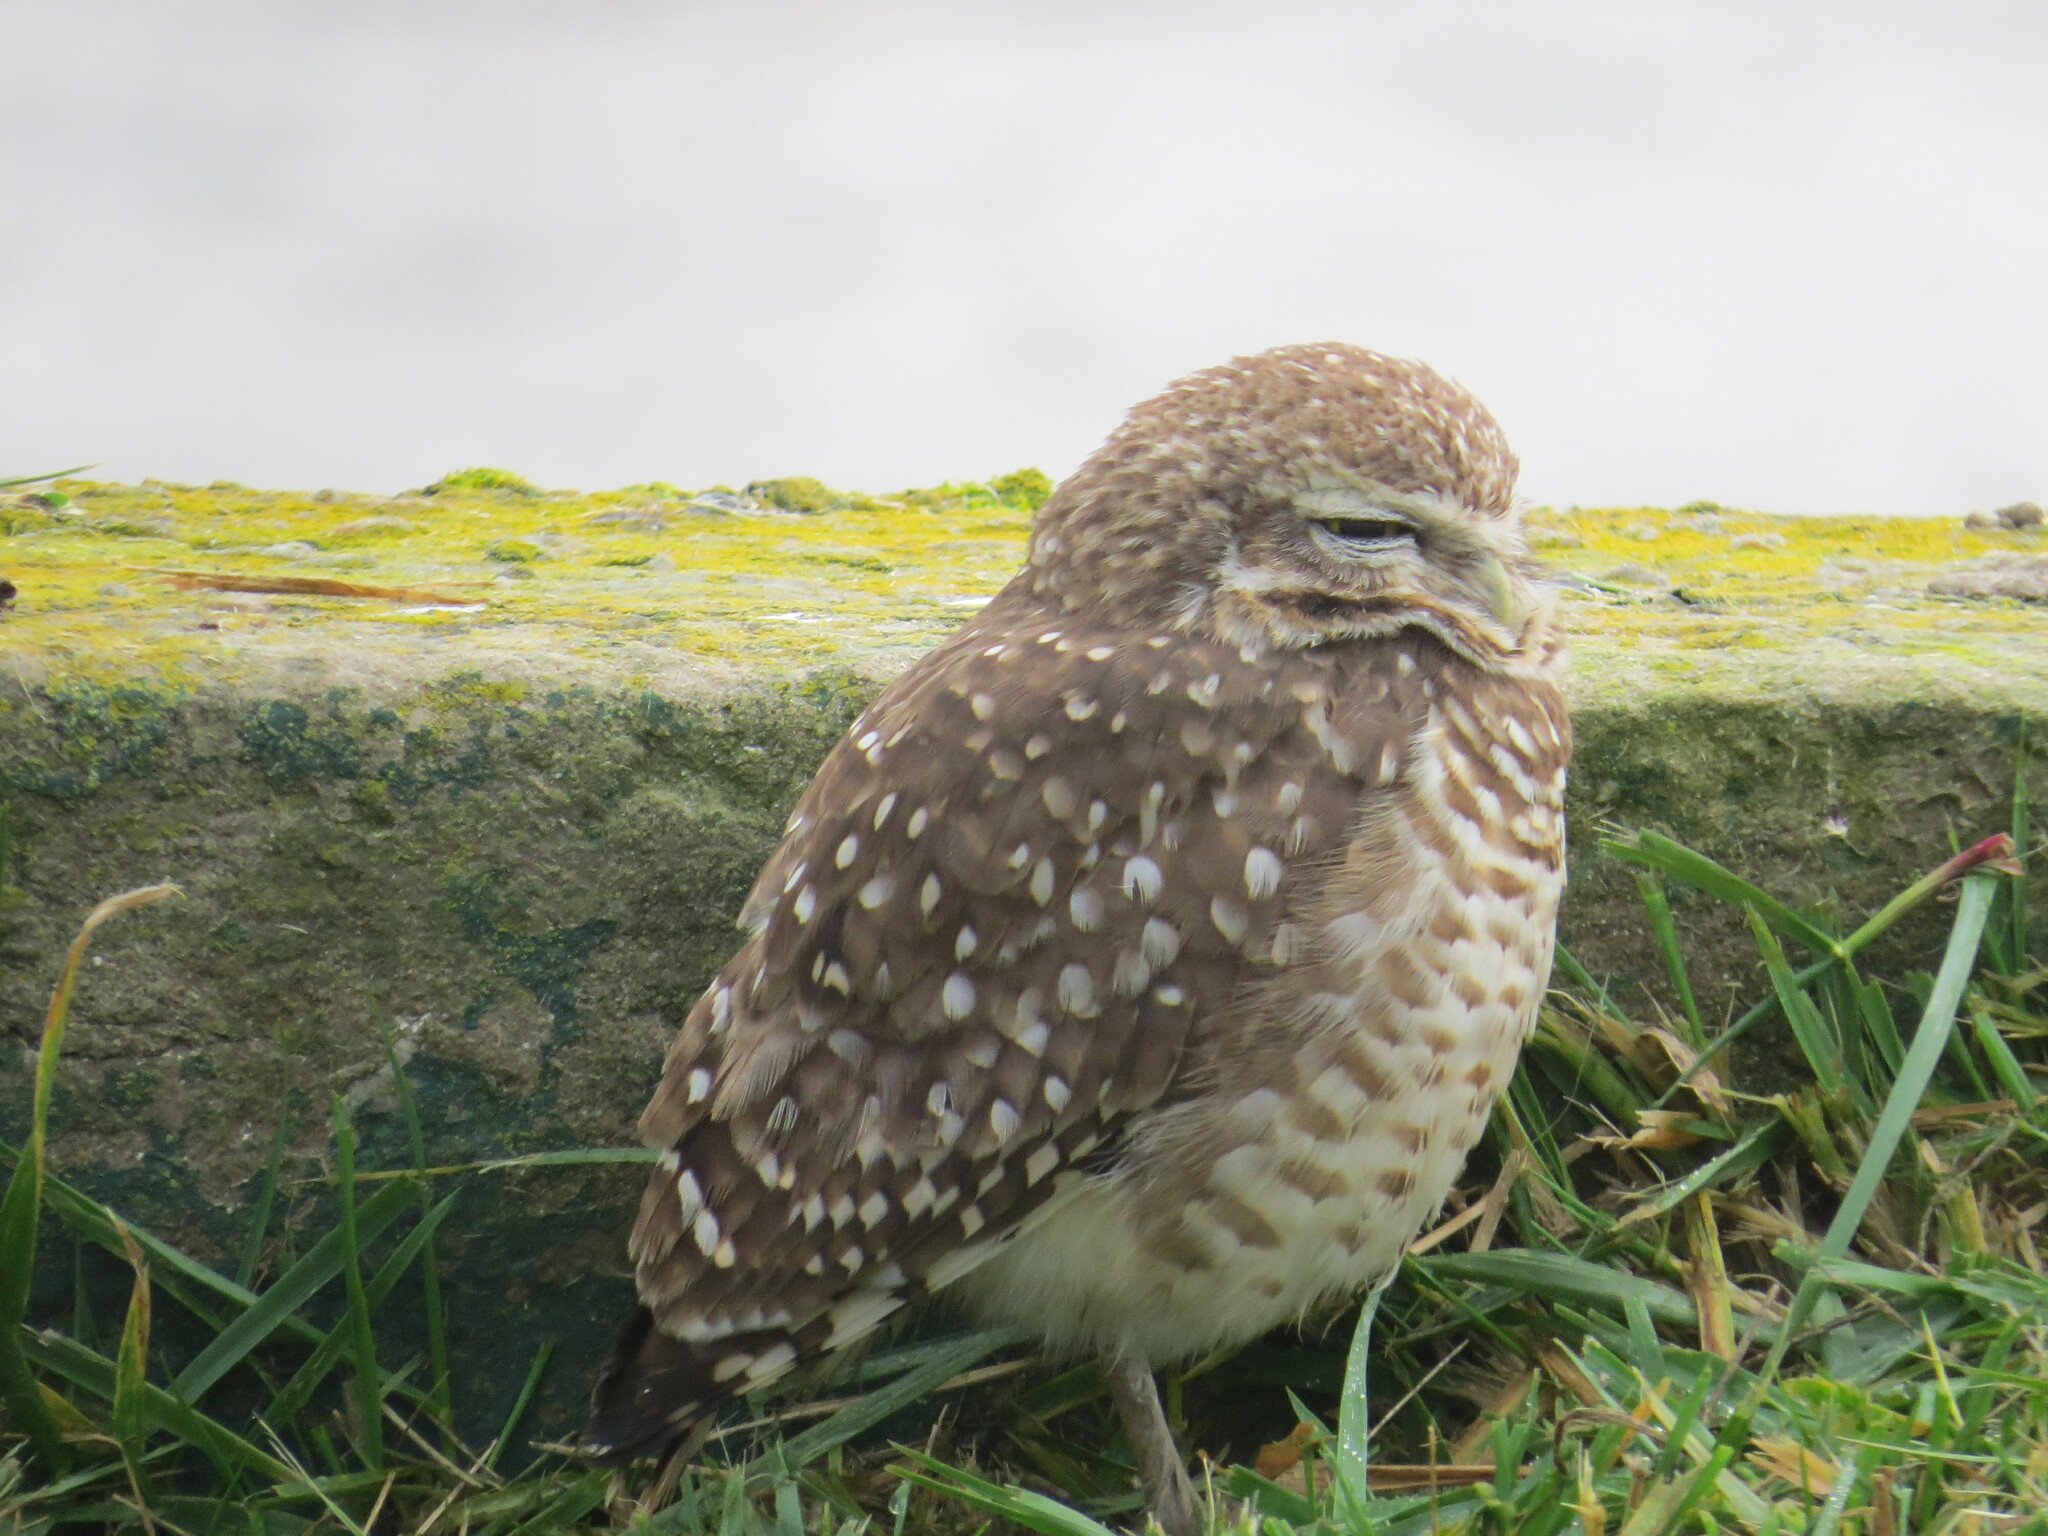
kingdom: Animalia
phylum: Chordata
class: Aves
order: Strigiformes
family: Strigidae
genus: Athene
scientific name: Athene cunicularia
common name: Burrowing owl
